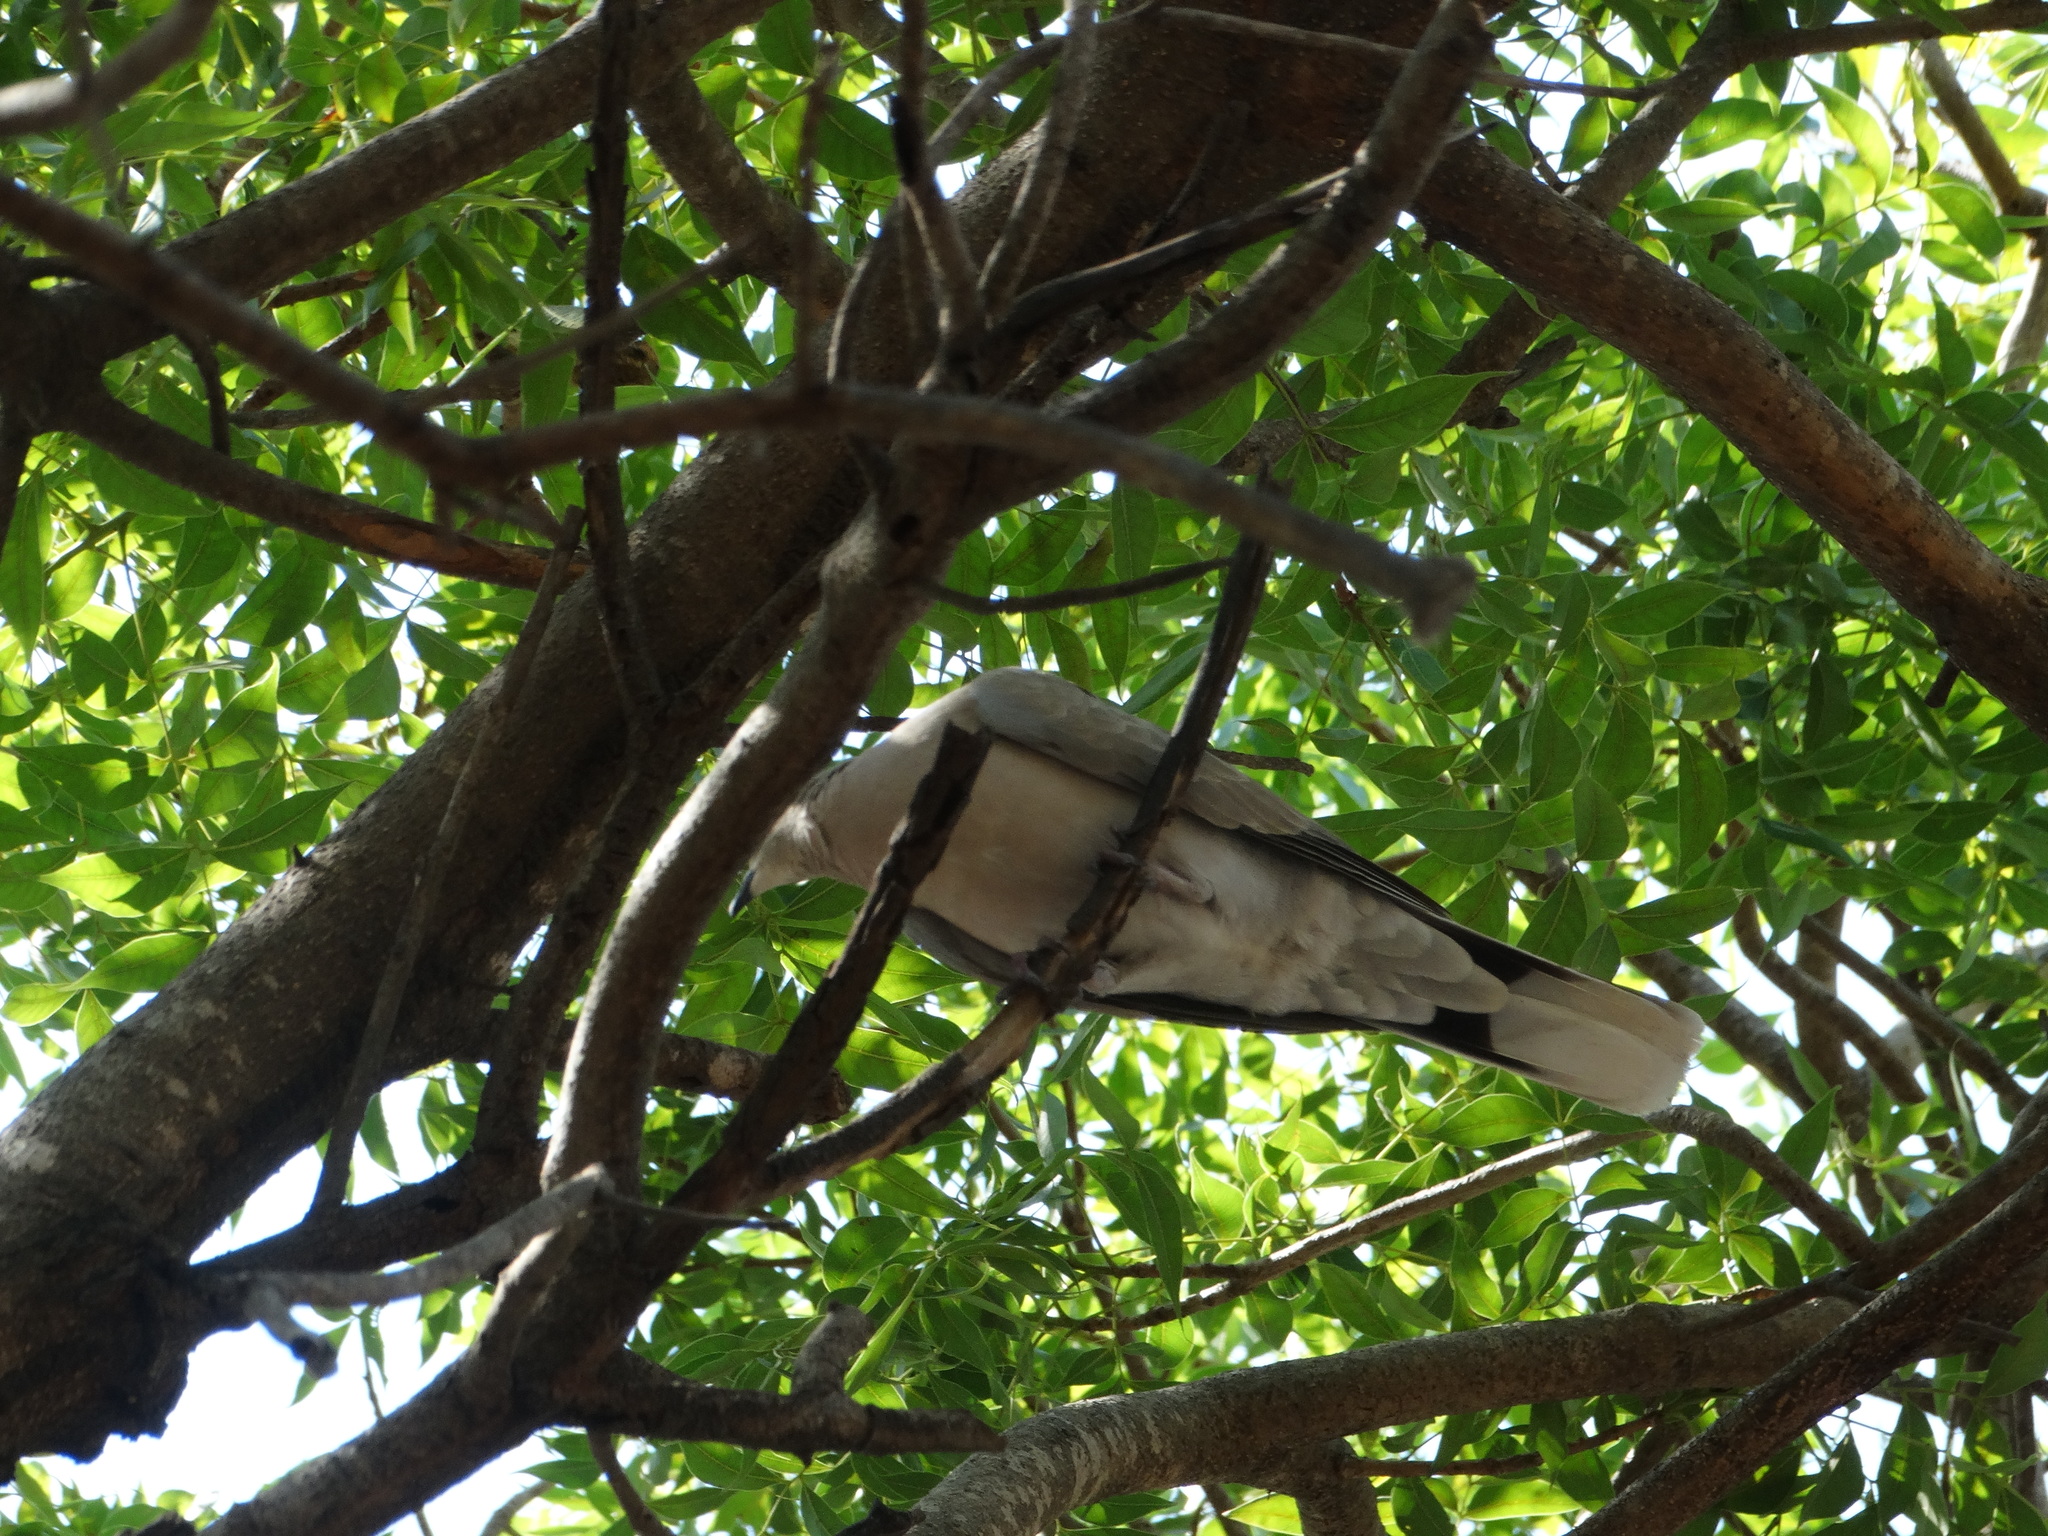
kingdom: Animalia
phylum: Chordata
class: Aves
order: Columbiformes
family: Columbidae
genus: Streptopelia
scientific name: Streptopelia decaocto
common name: Eurasian collared dove
